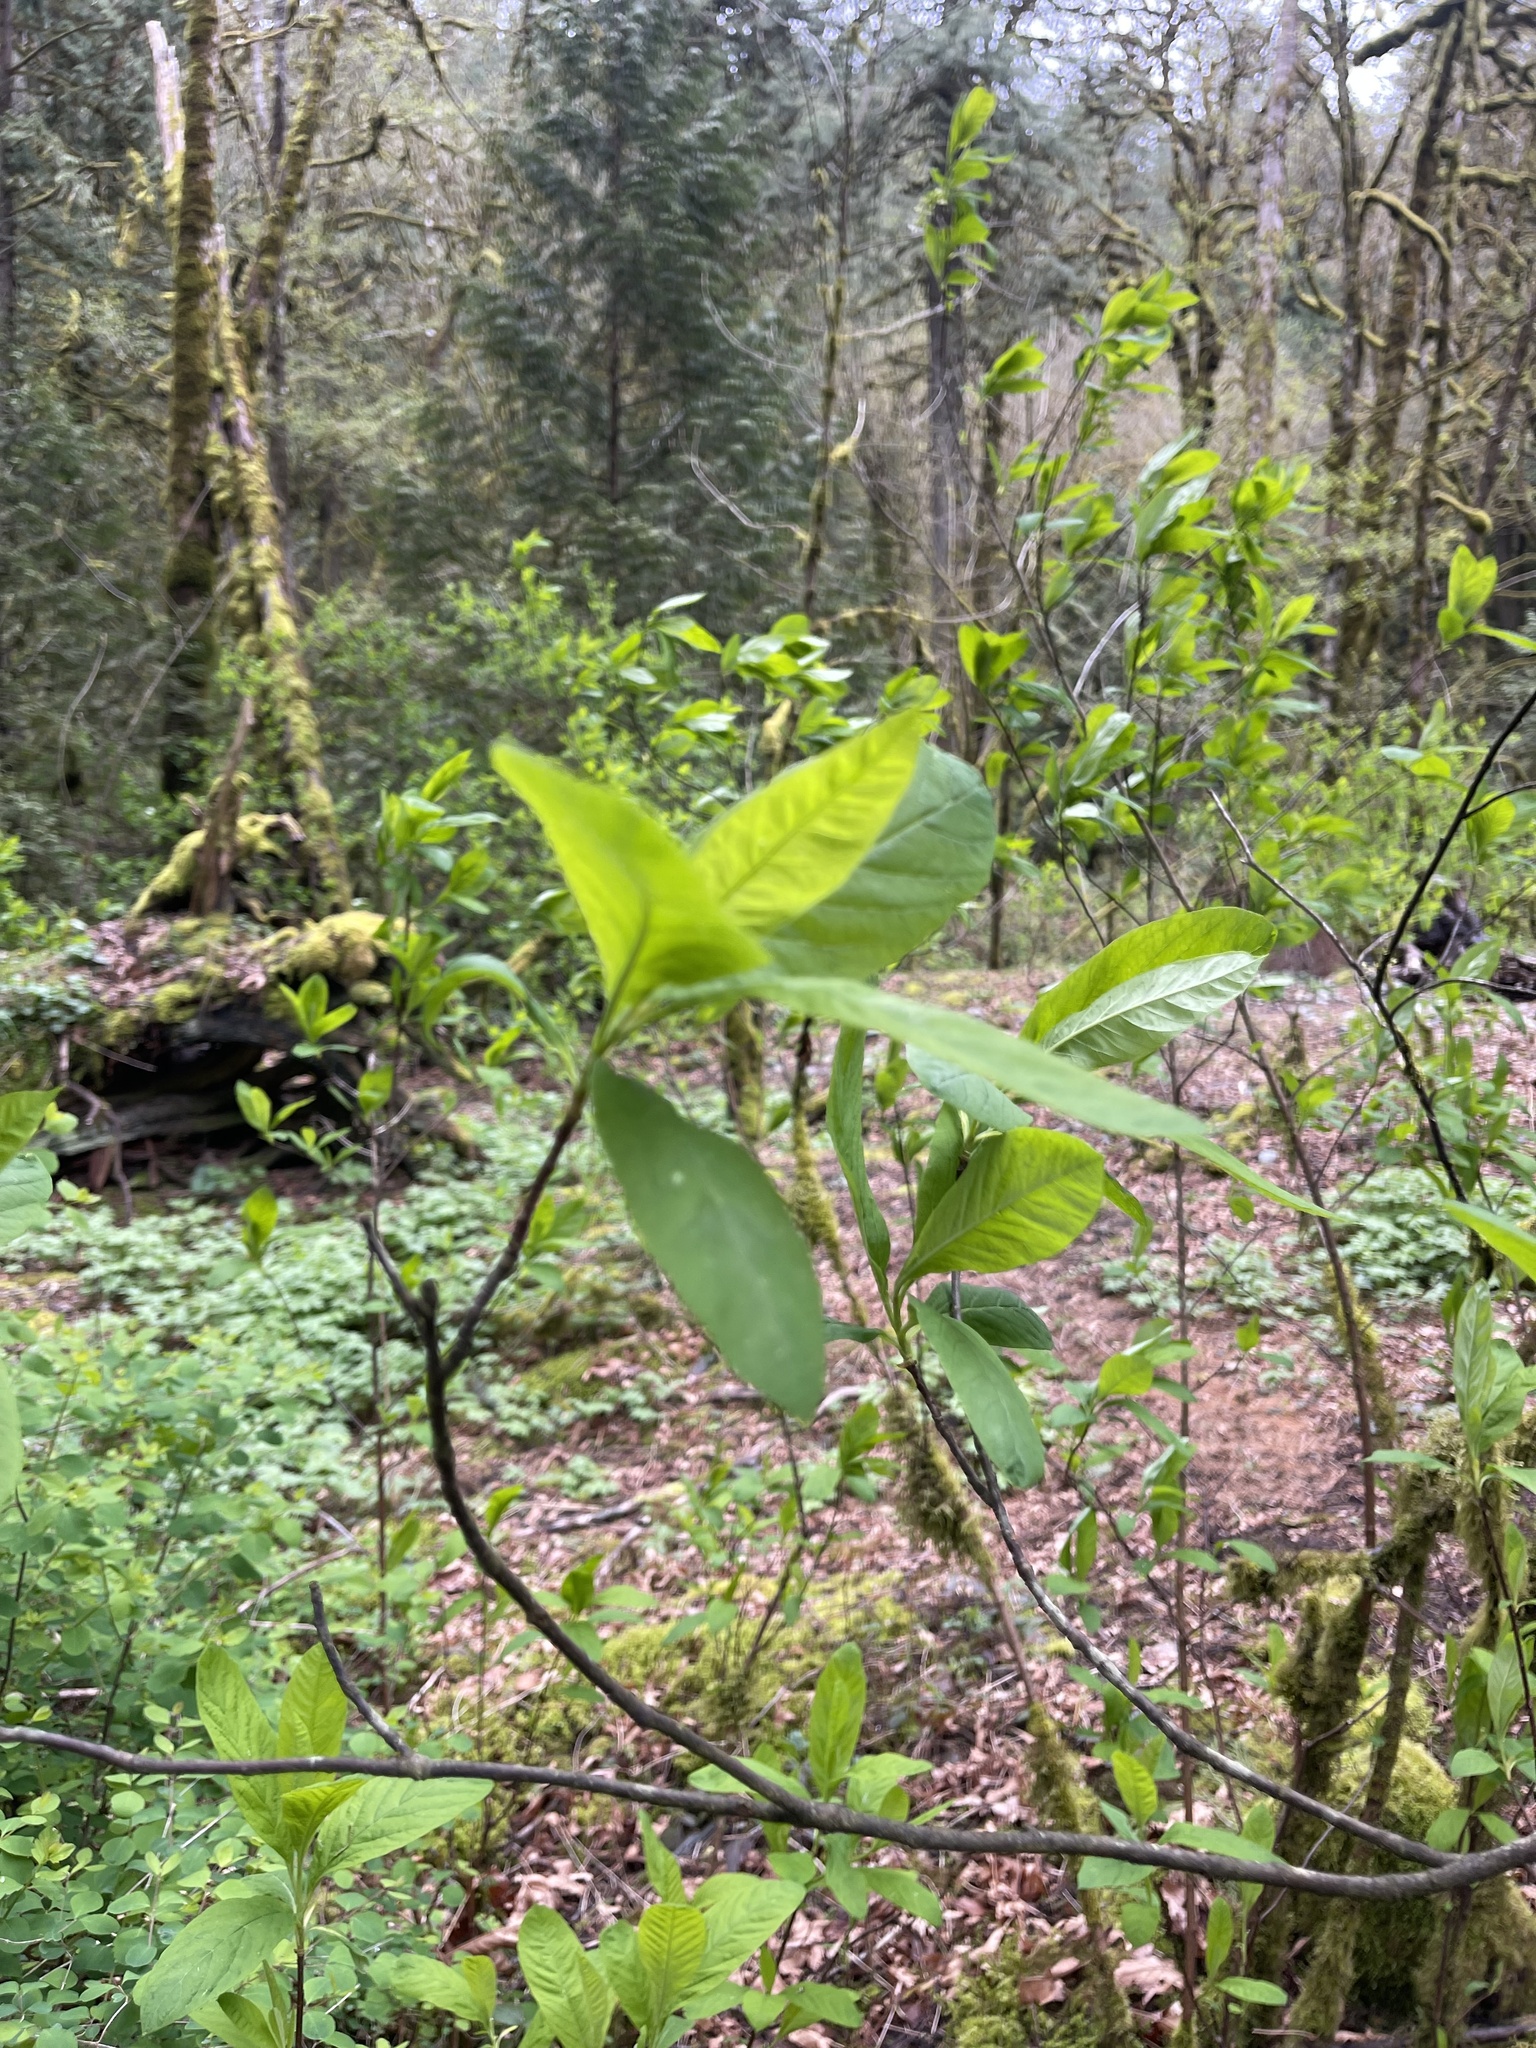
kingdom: Plantae
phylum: Tracheophyta
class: Magnoliopsida
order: Rosales
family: Rosaceae
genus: Oemleria
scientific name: Oemleria cerasiformis
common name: Osoberry
